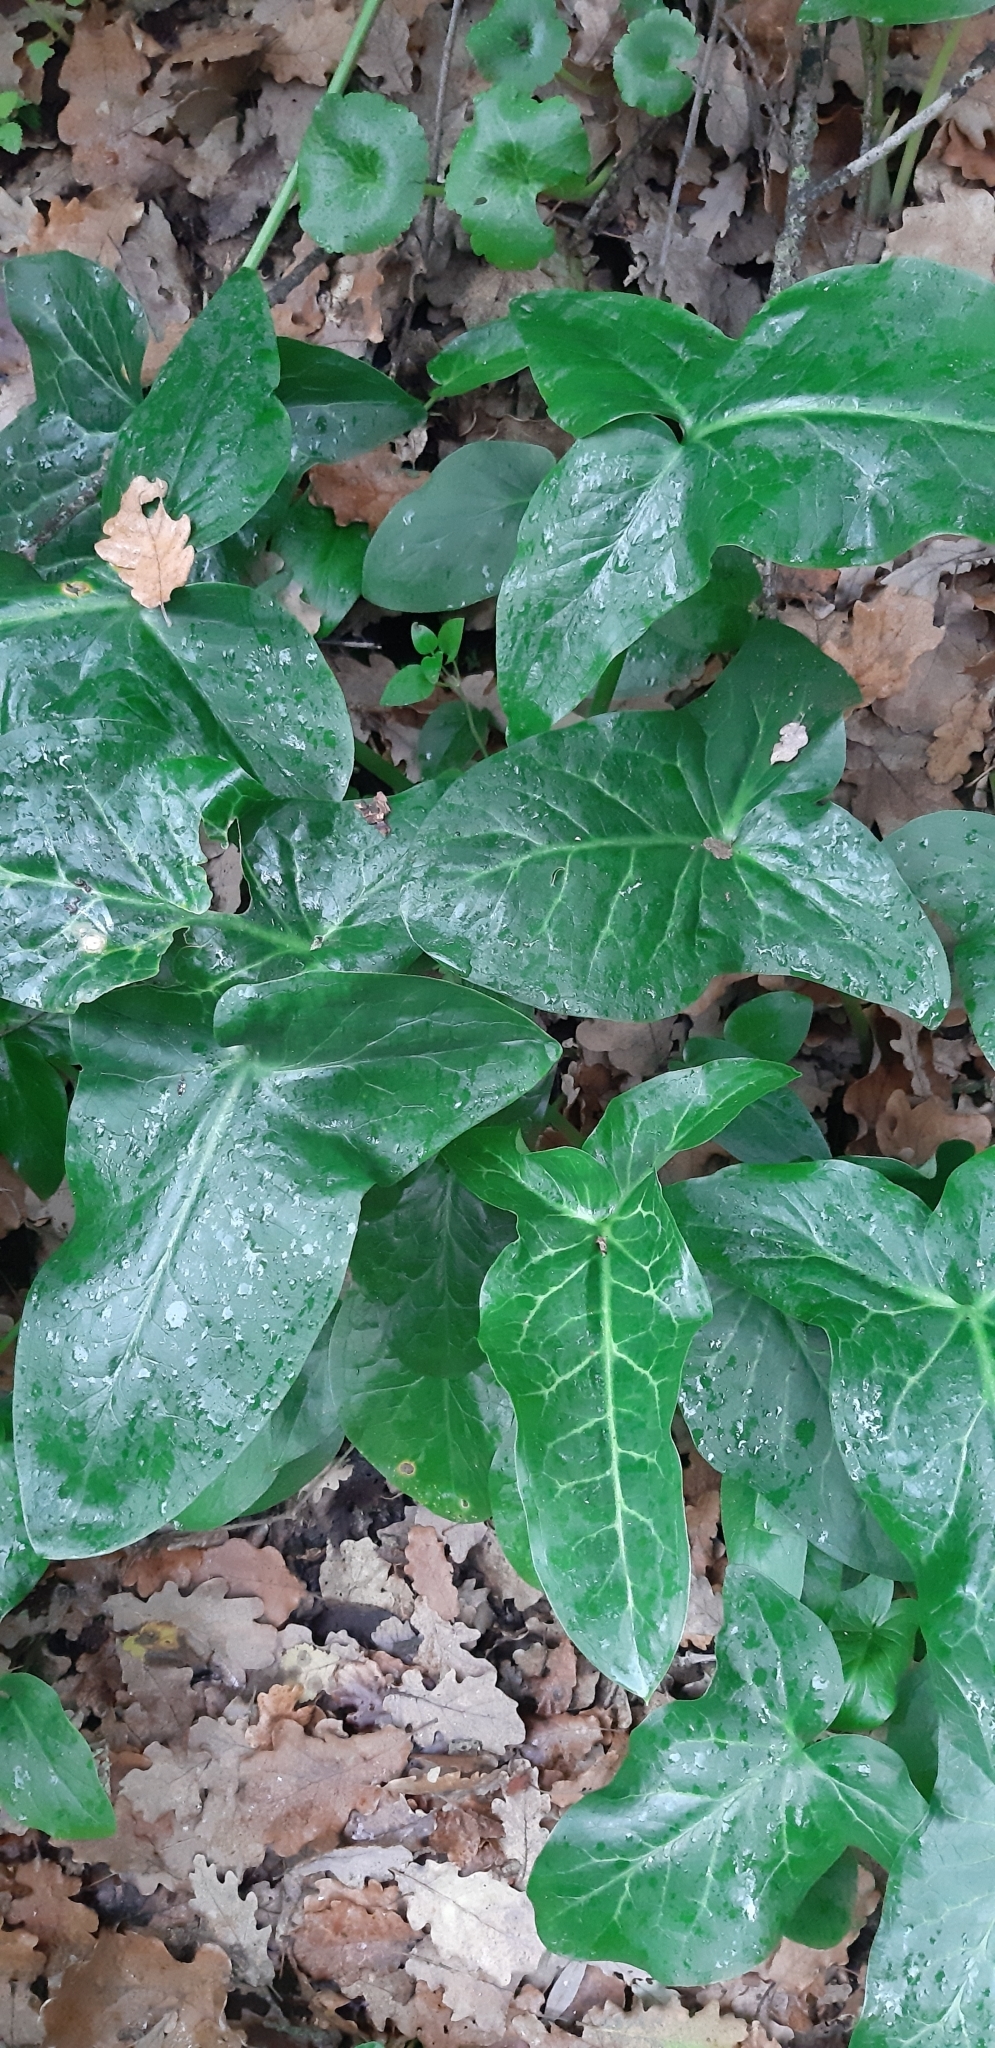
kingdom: Plantae
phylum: Tracheophyta
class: Liliopsida
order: Alismatales
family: Araceae
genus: Arum
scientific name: Arum italicum
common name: Italian lords-and-ladies
